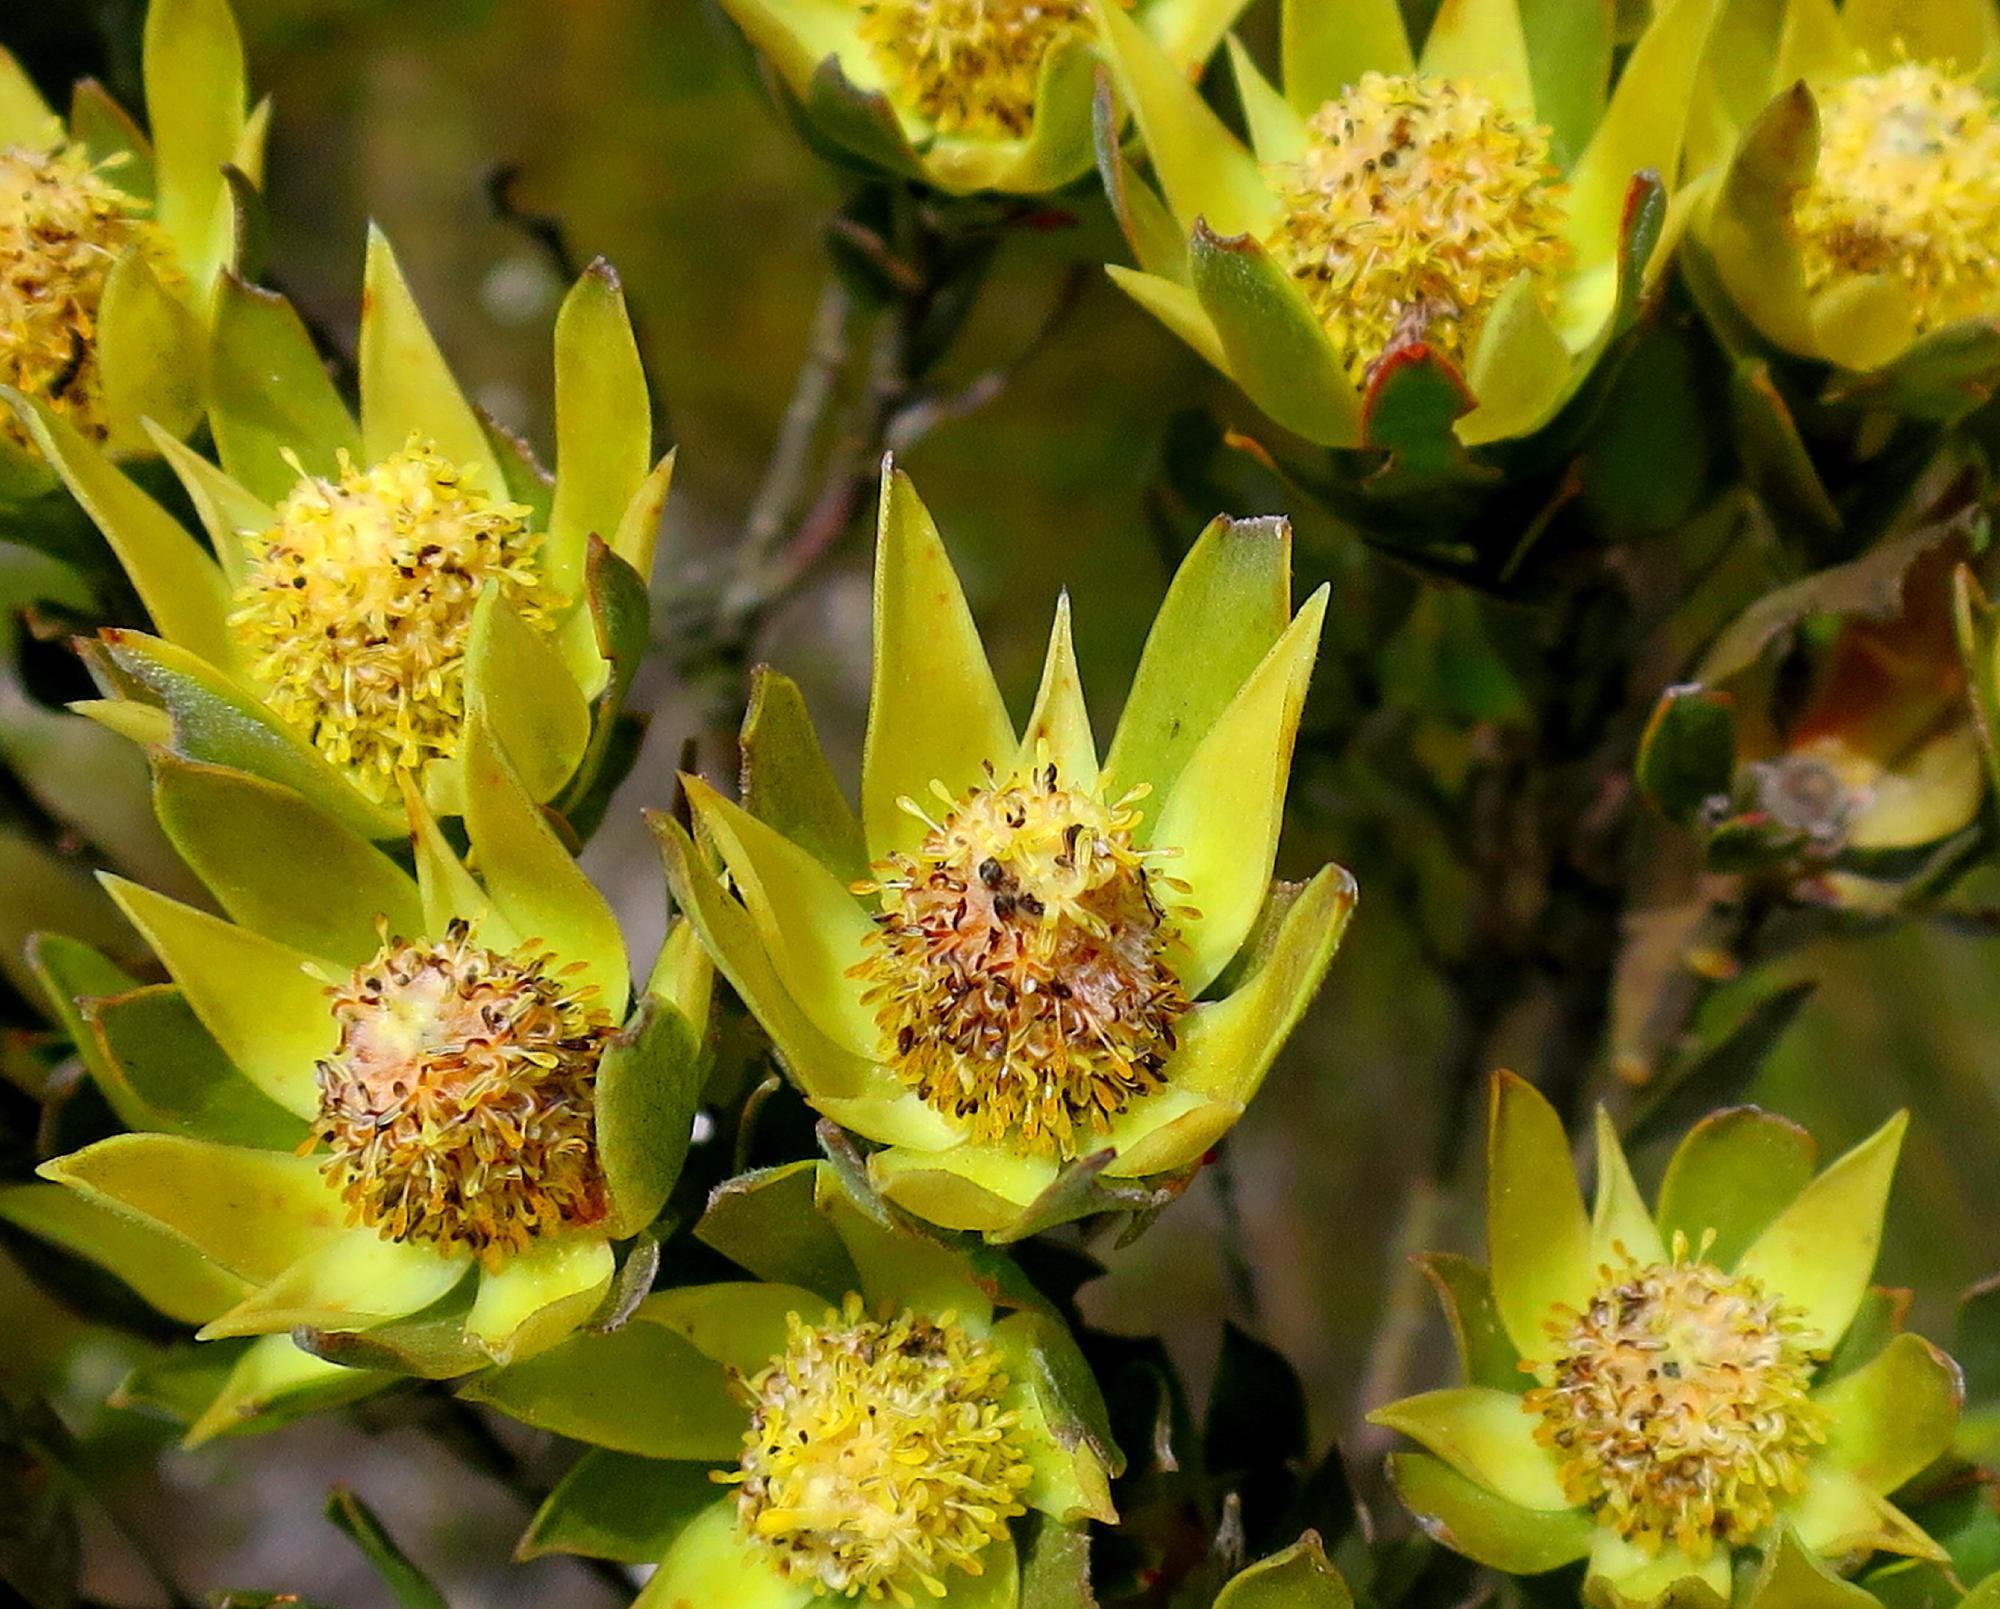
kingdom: Plantae
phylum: Tracheophyta
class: Magnoliopsida
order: Proteales
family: Proteaceae
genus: Leucadendron
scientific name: Leucadendron uliginosum
